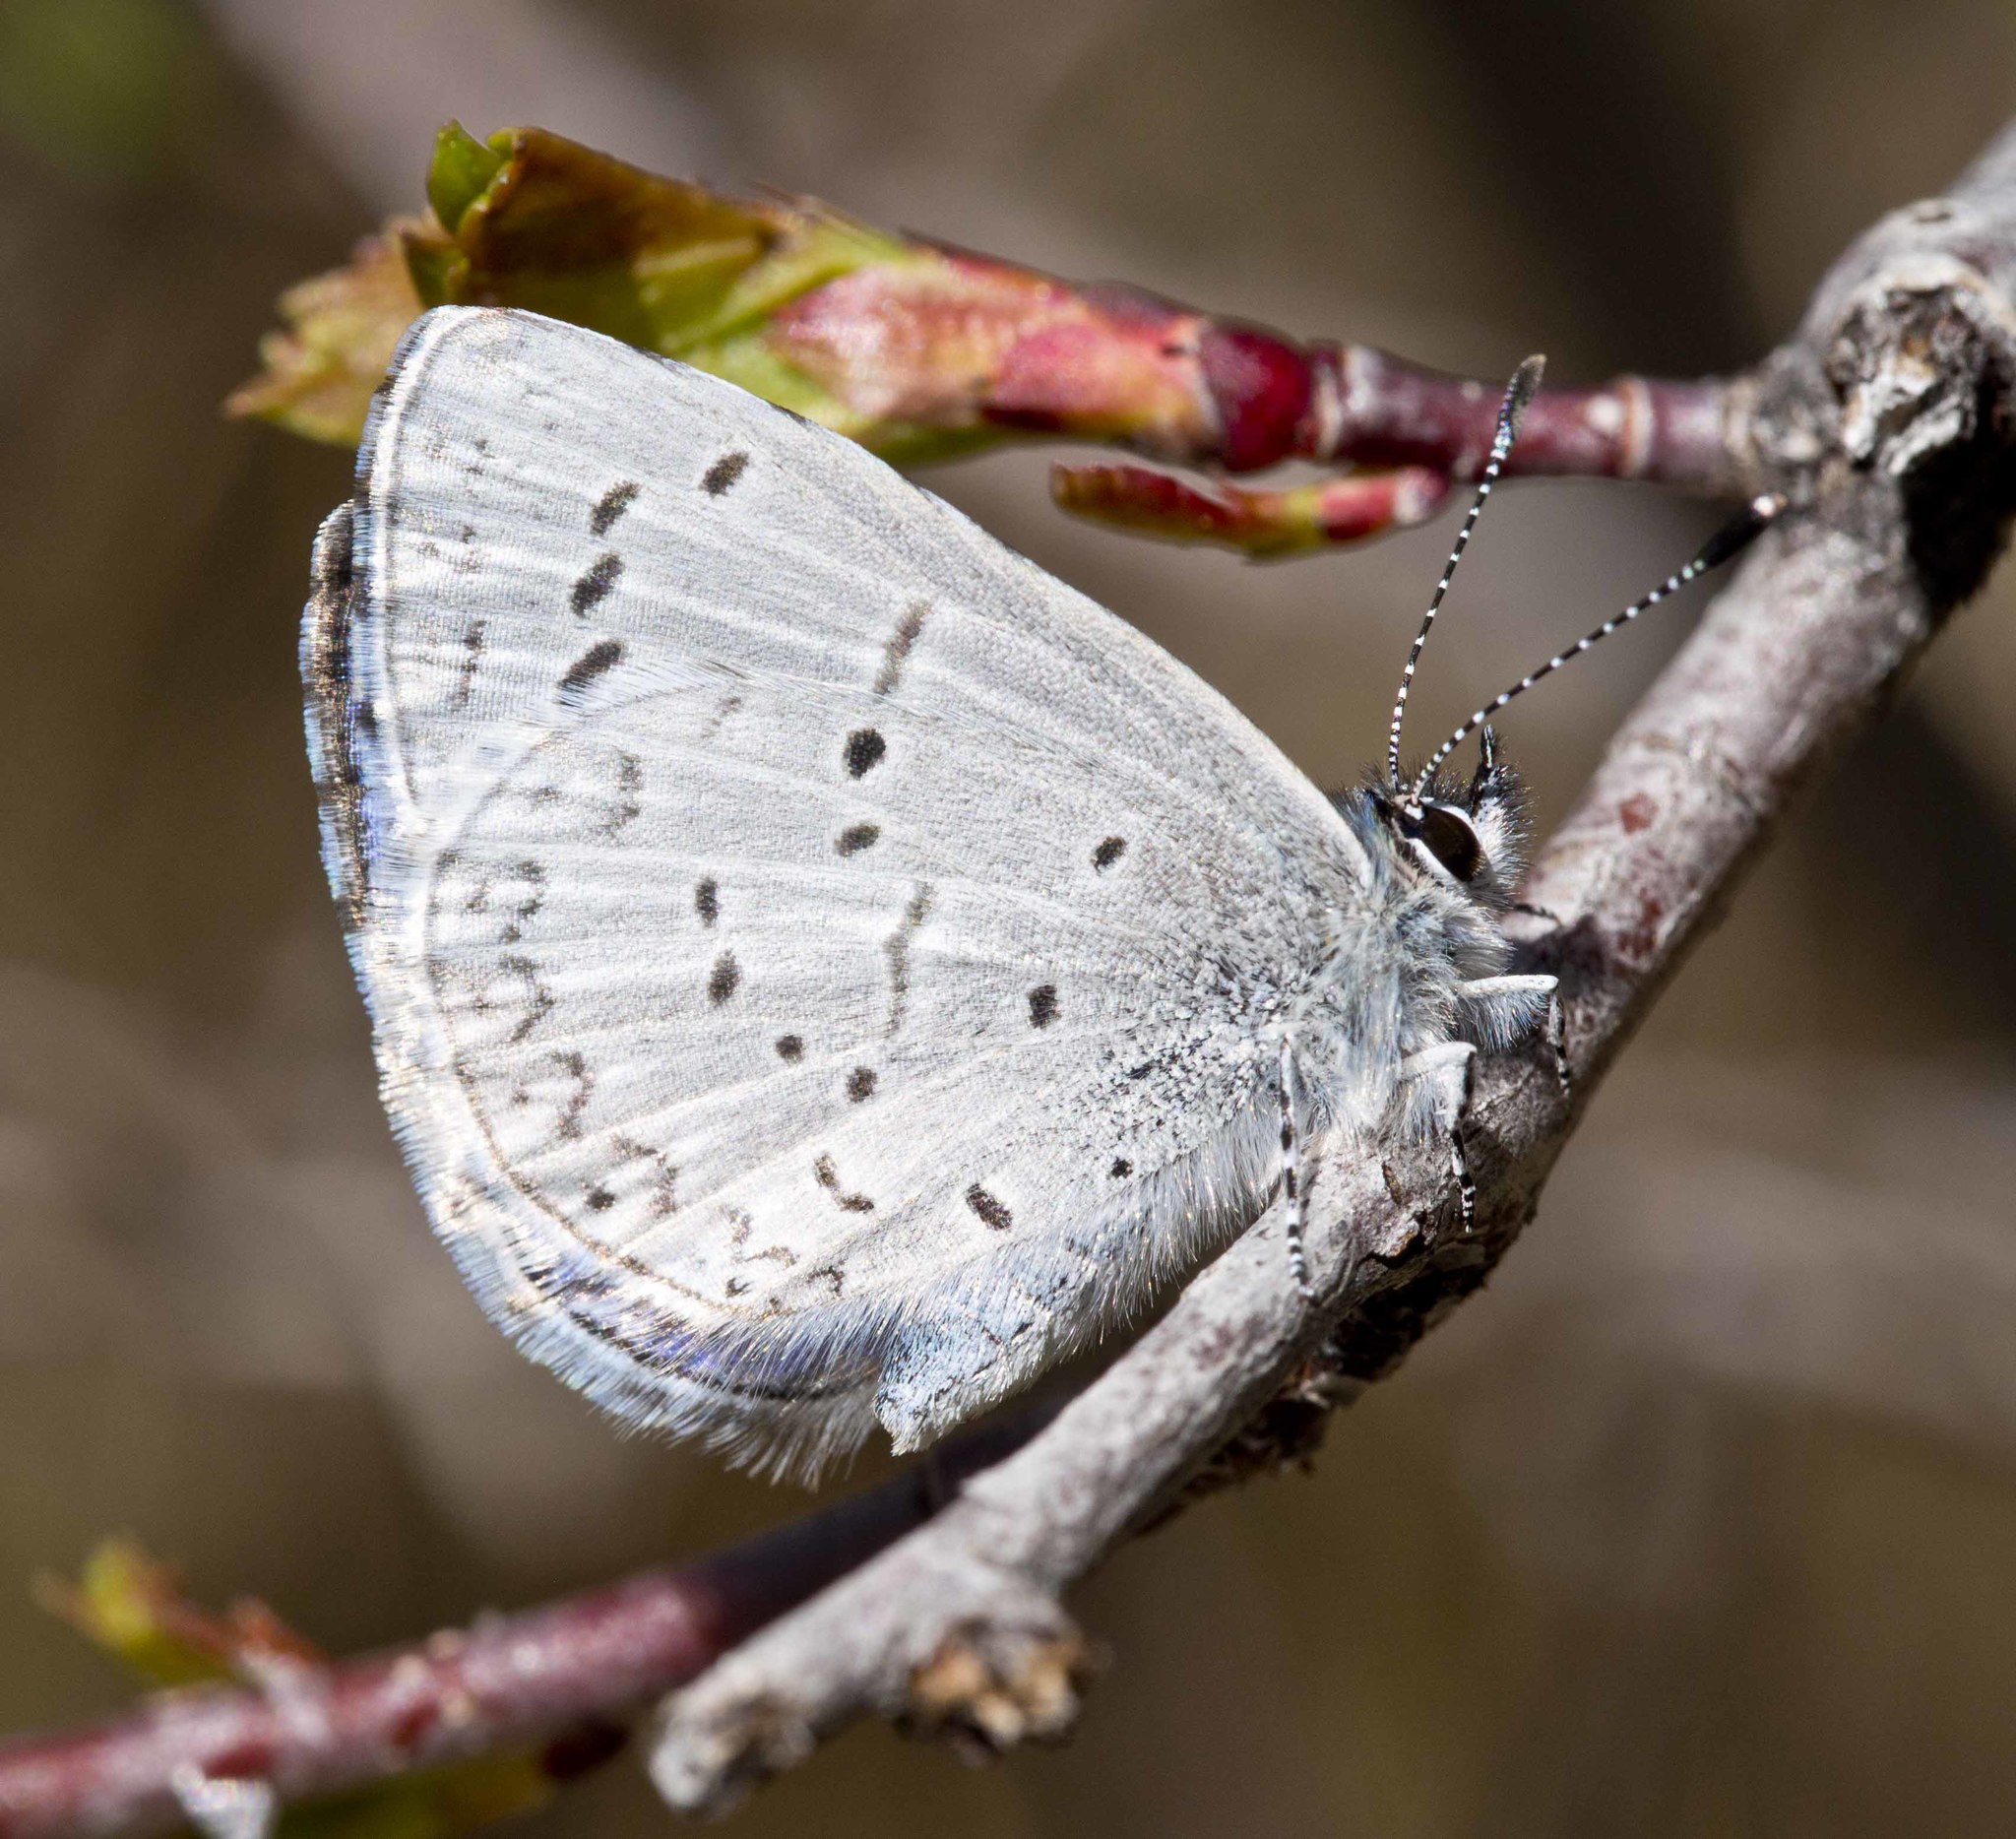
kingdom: Animalia
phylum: Arthropoda
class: Insecta
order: Lepidoptera
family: Lycaenidae
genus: Celastrina
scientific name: Celastrina ladon
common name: Spring azure
